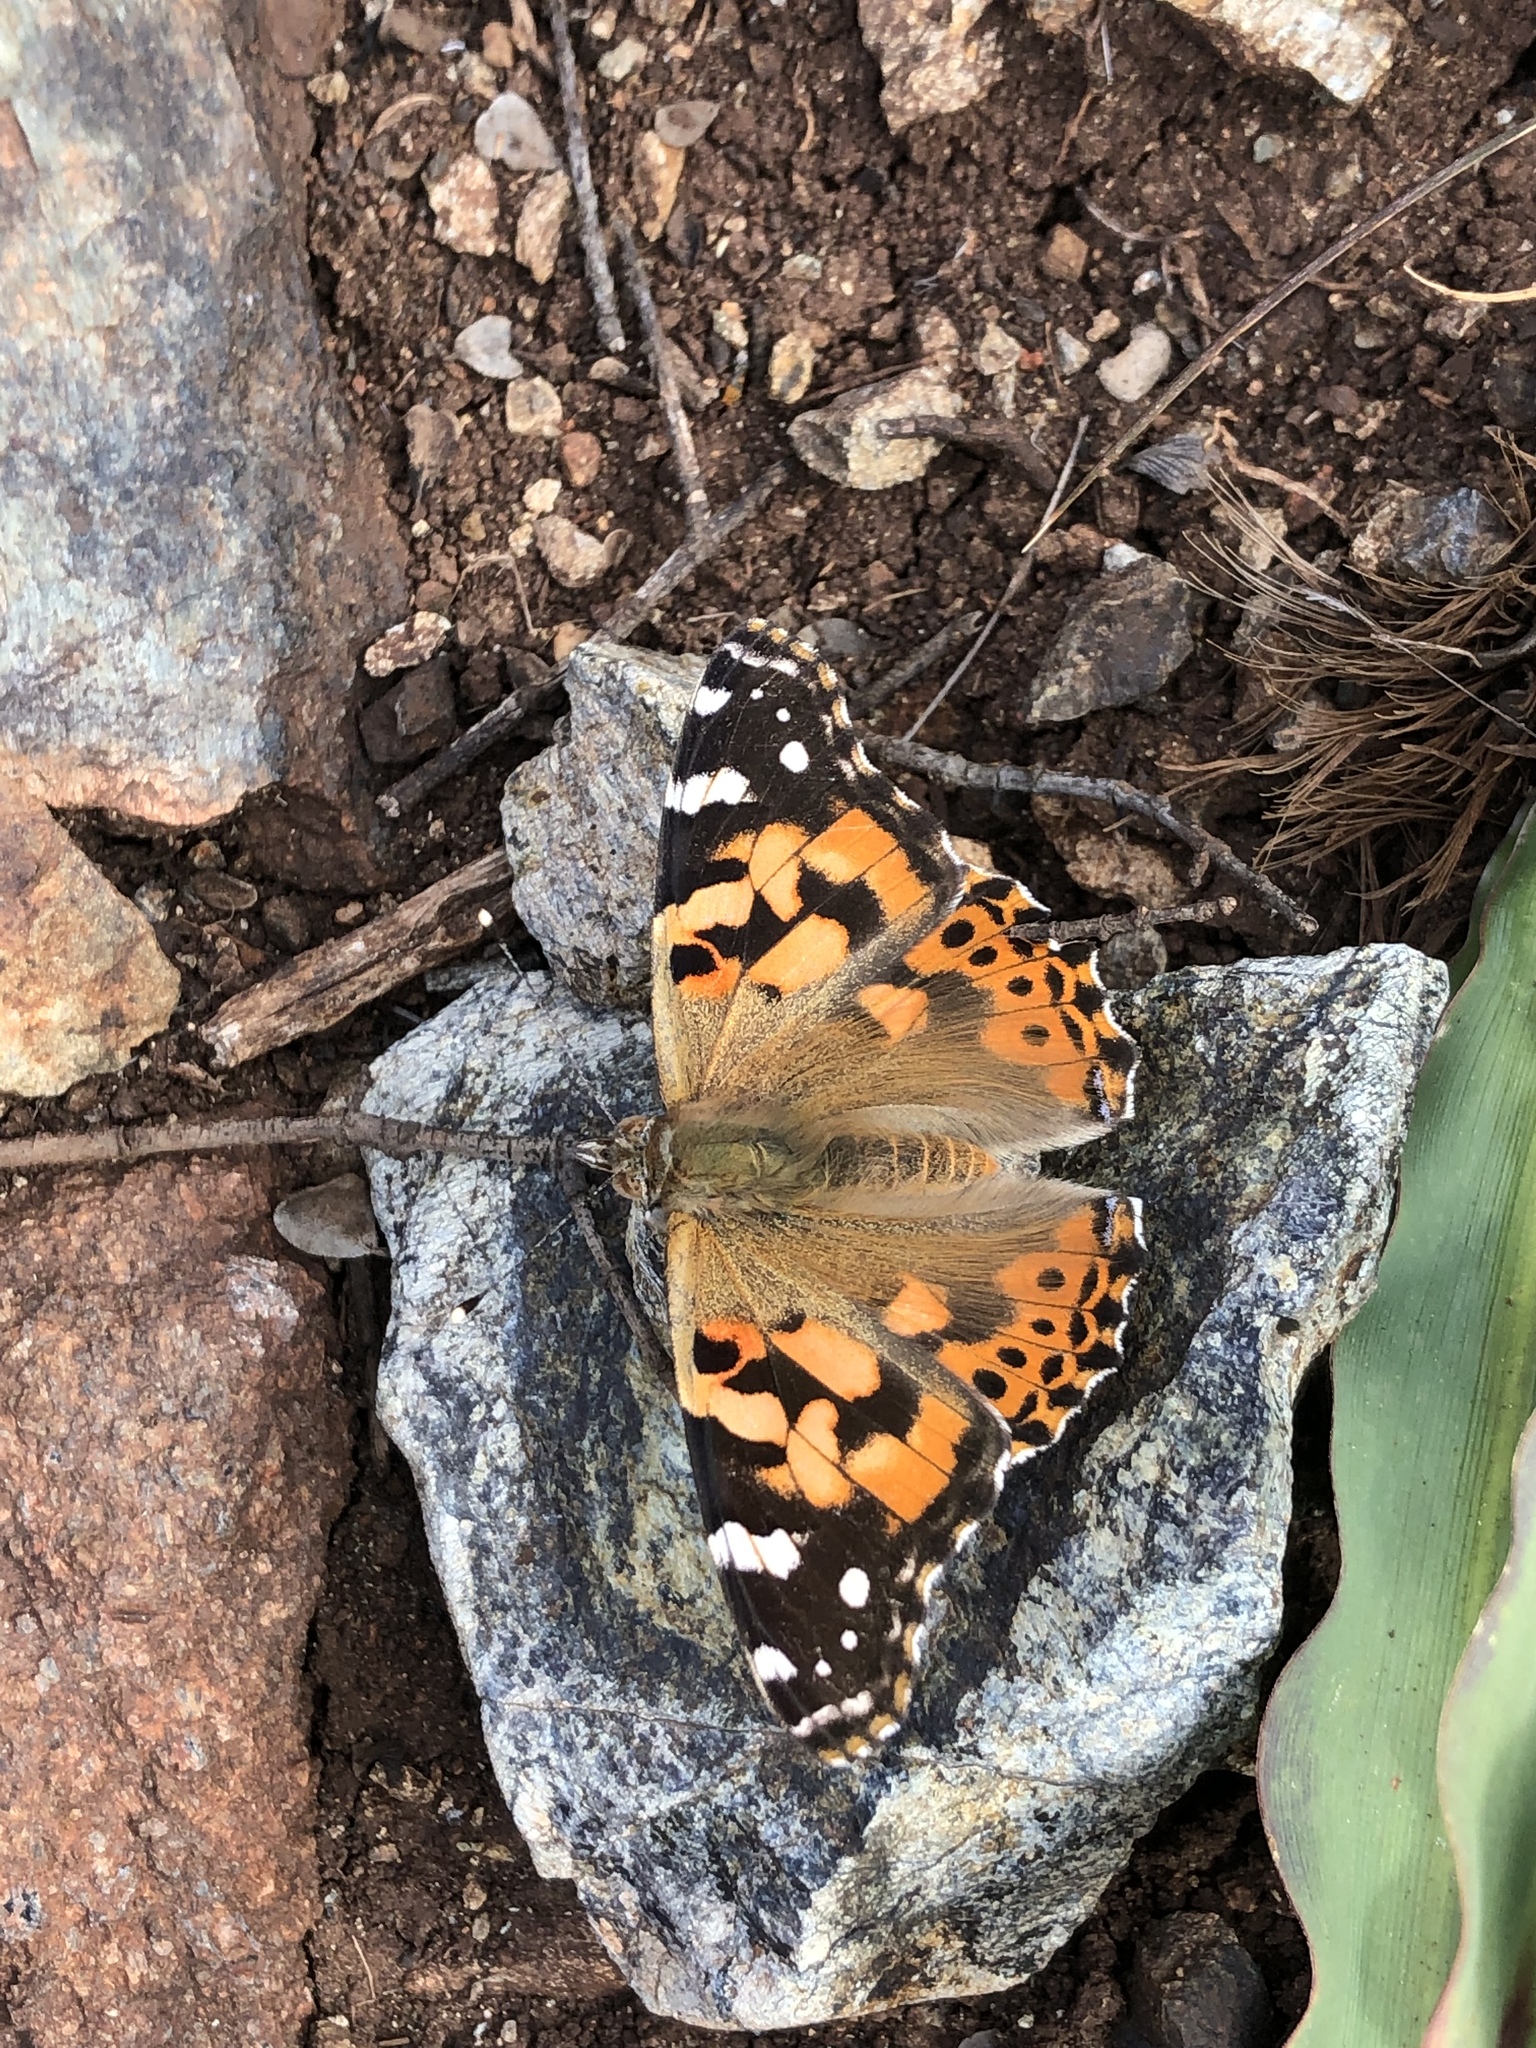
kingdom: Animalia
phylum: Arthropoda
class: Insecta
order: Lepidoptera
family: Nymphalidae
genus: Vanessa
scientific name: Vanessa cardui
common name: Painted lady
